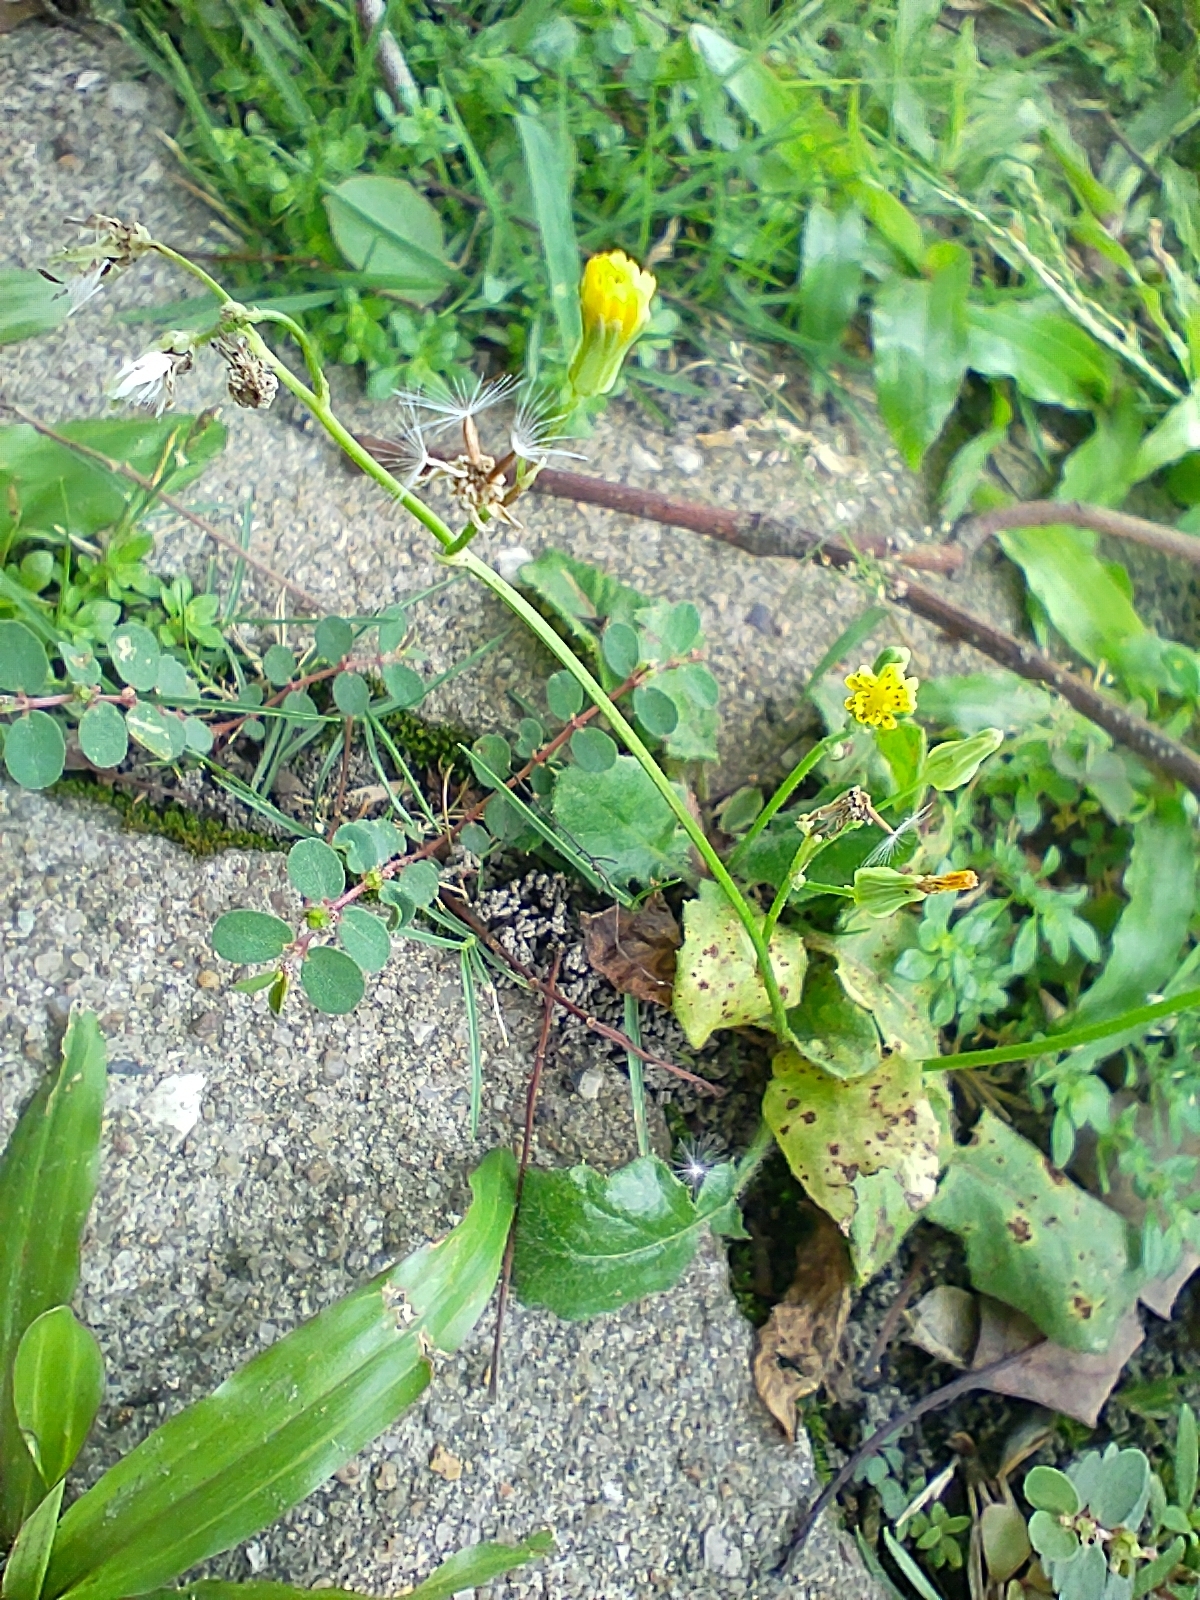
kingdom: Plantae
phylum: Tracheophyta
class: Magnoliopsida
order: Asterales
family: Asteraceae
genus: Youngia
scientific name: Youngia japonica
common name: Oriental false hawksbeard
